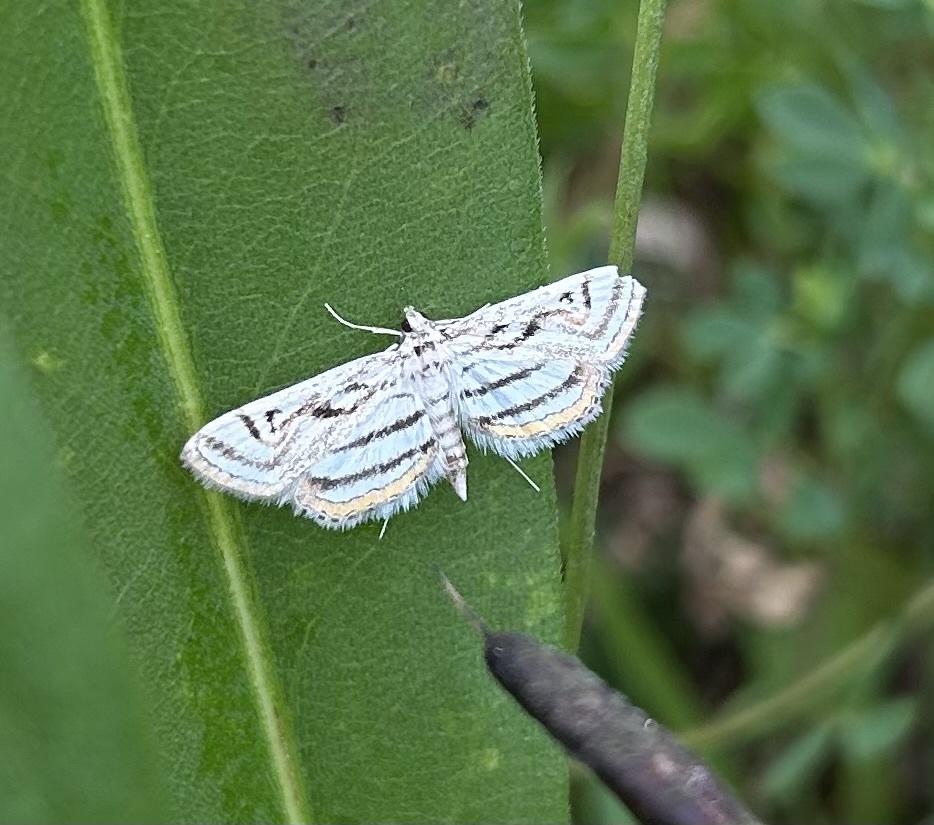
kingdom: Animalia
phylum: Arthropoda
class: Insecta
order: Lepidoptera
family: Crambidae
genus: Parapoynx
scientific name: Parapoynx badiusalis
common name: Chestnut-marked pondweed moth
